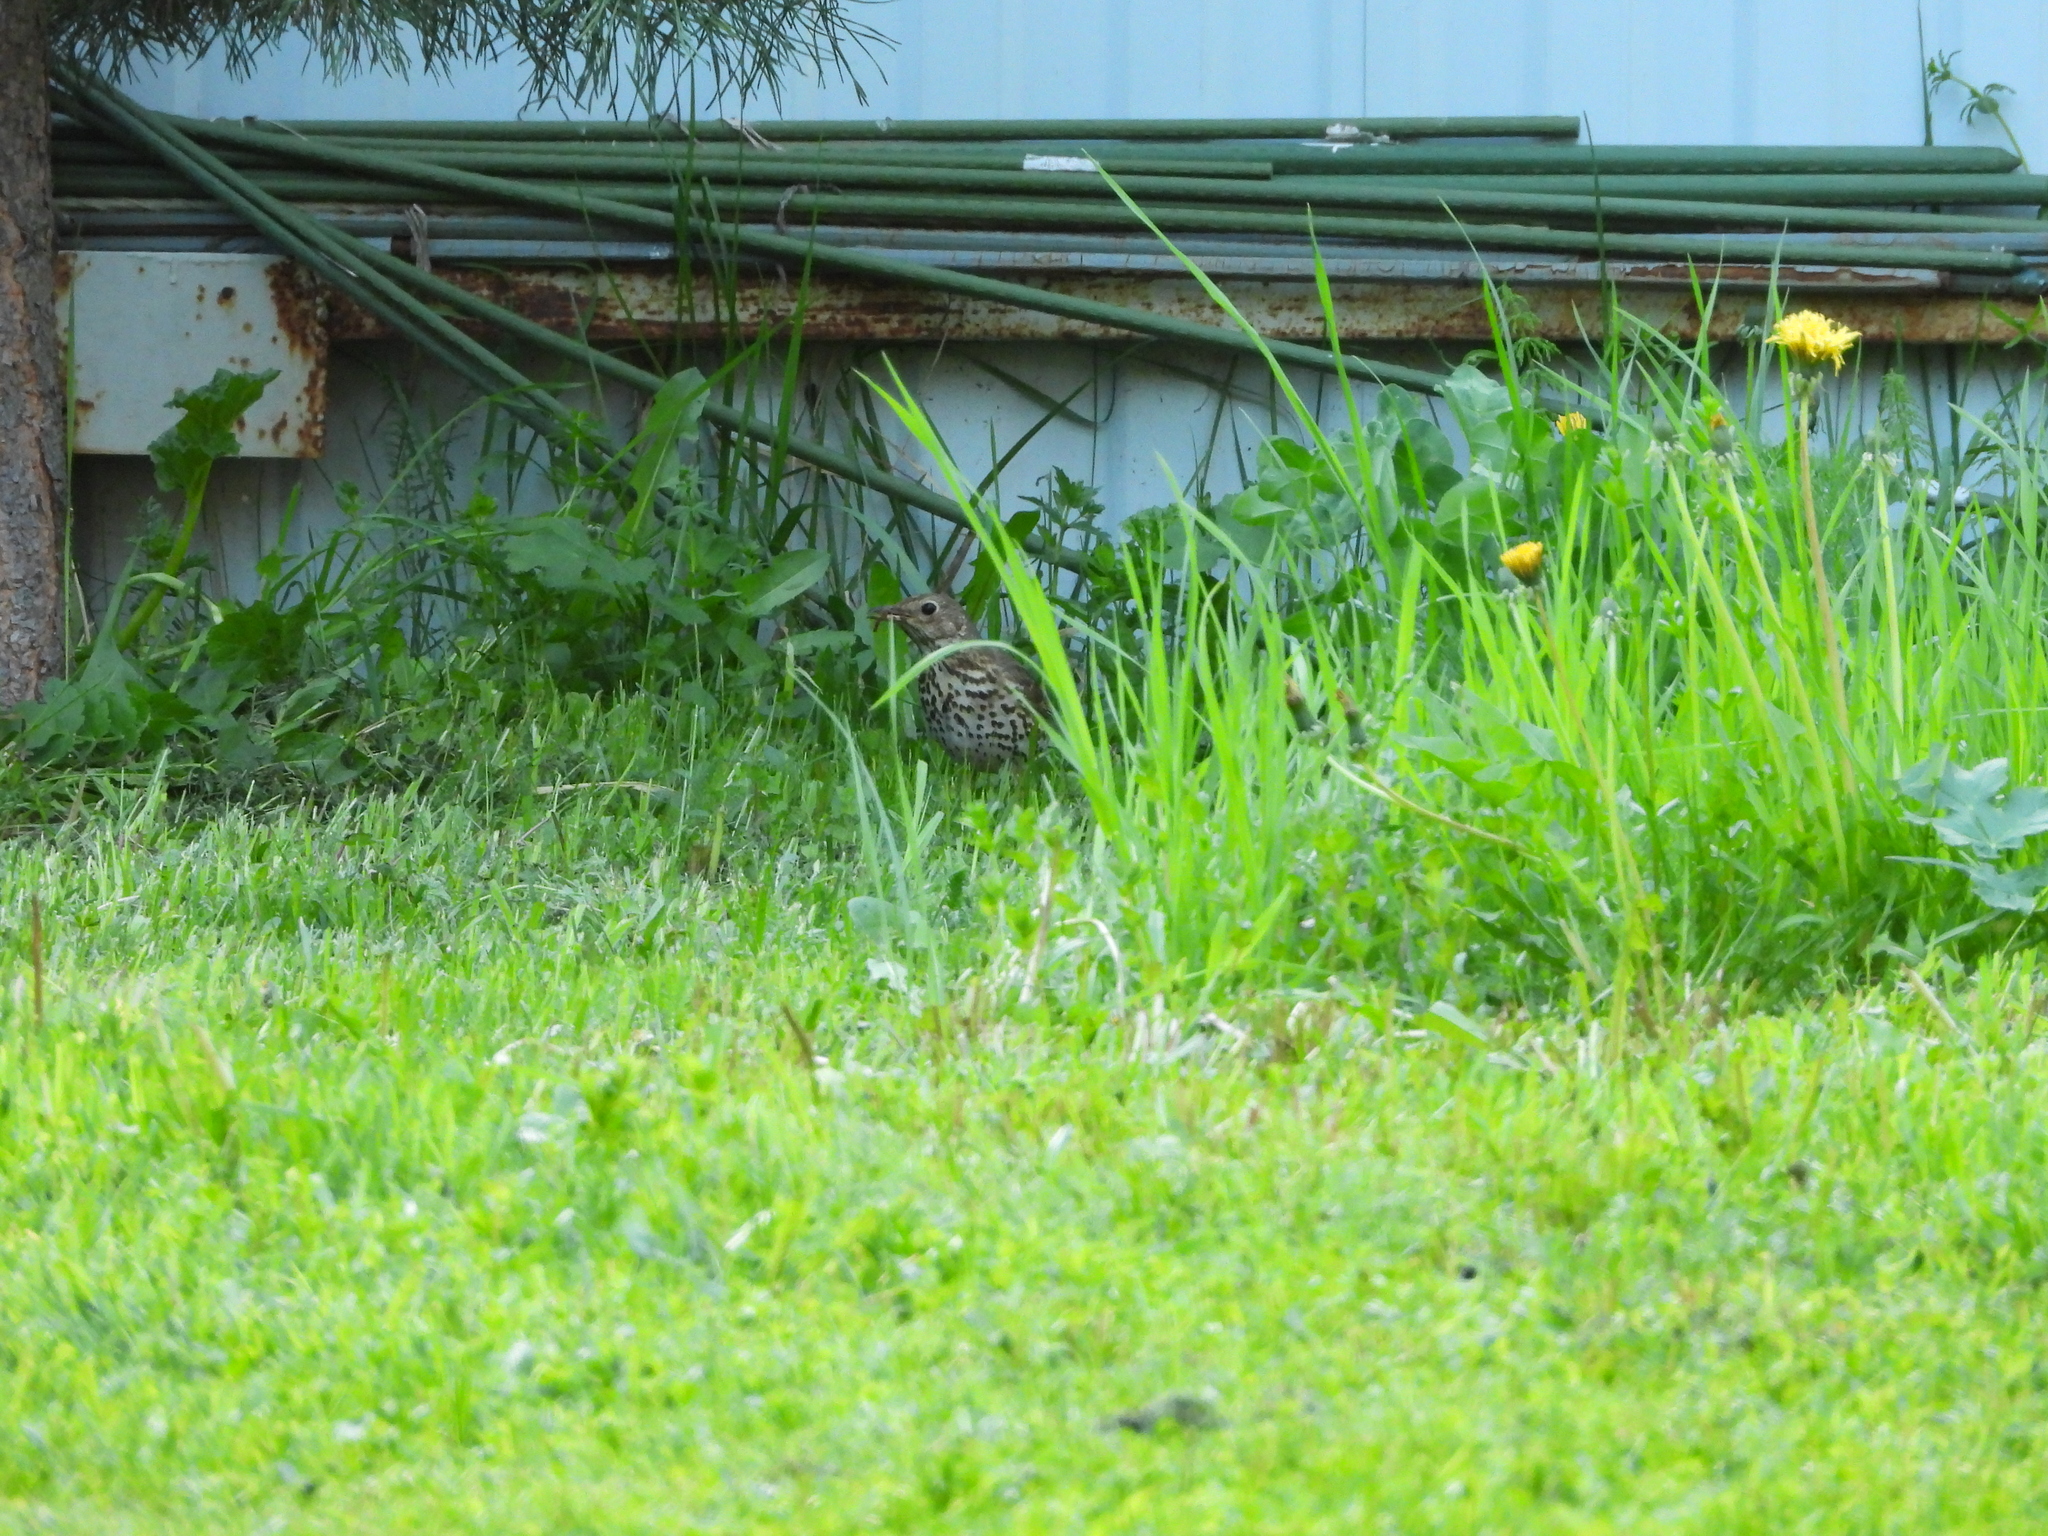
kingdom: Animalia
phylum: Chordata
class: Aves
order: Passeriformes
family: Turdidae
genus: Turdus
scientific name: Turdus philomelos
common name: Song thrush
